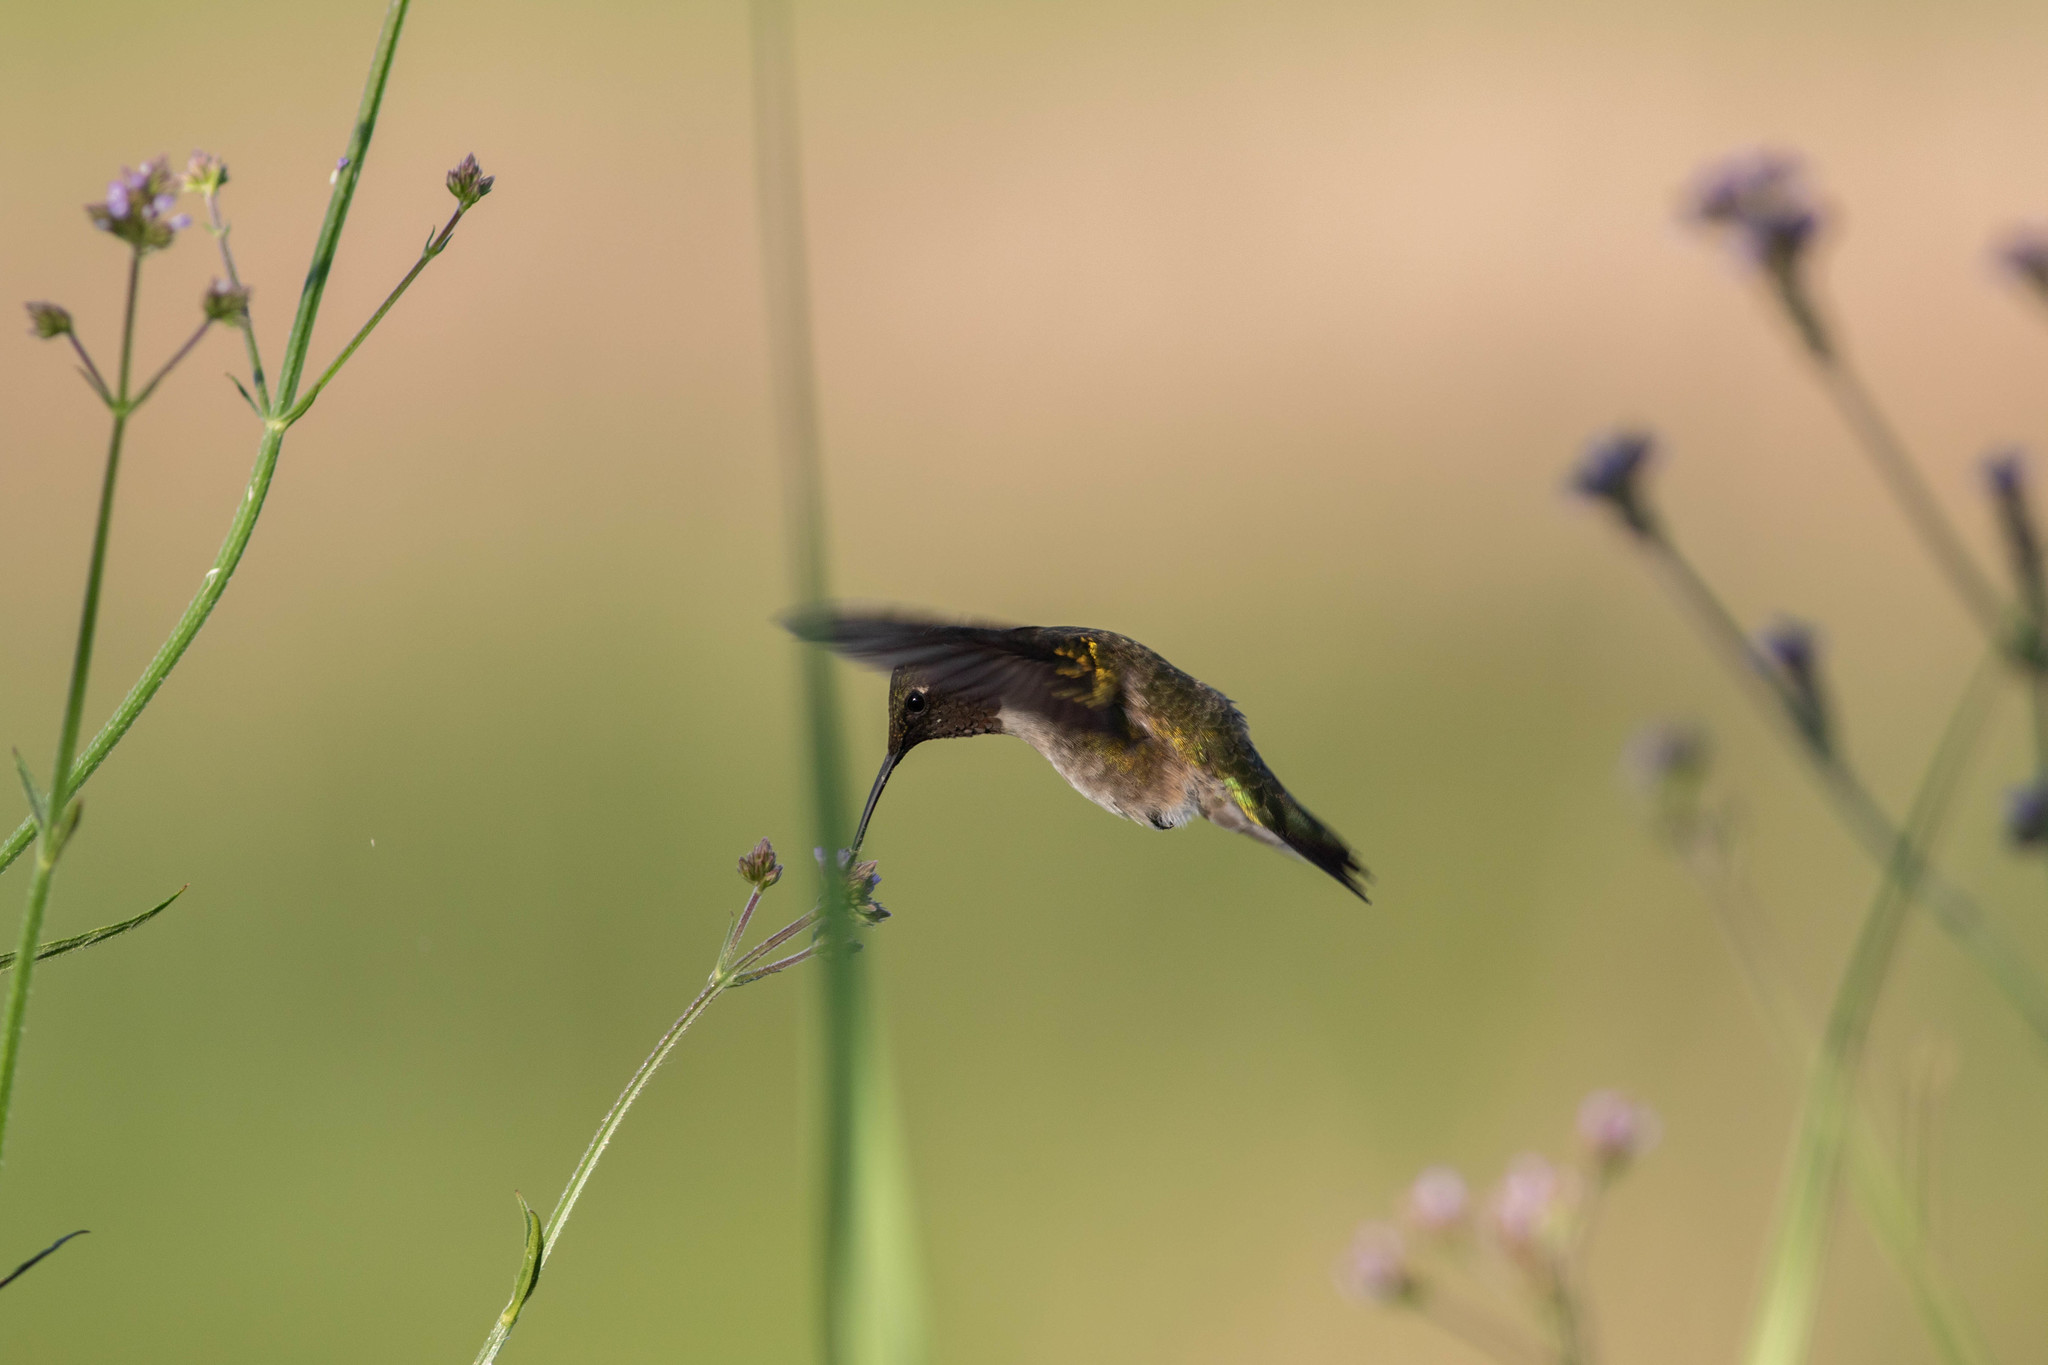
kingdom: Animalia
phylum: Chordata
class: Aves
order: Apodiformes
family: Trochilidae
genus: Archilochus
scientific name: Archilochus colubris
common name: Ruby-throated hummingbird
